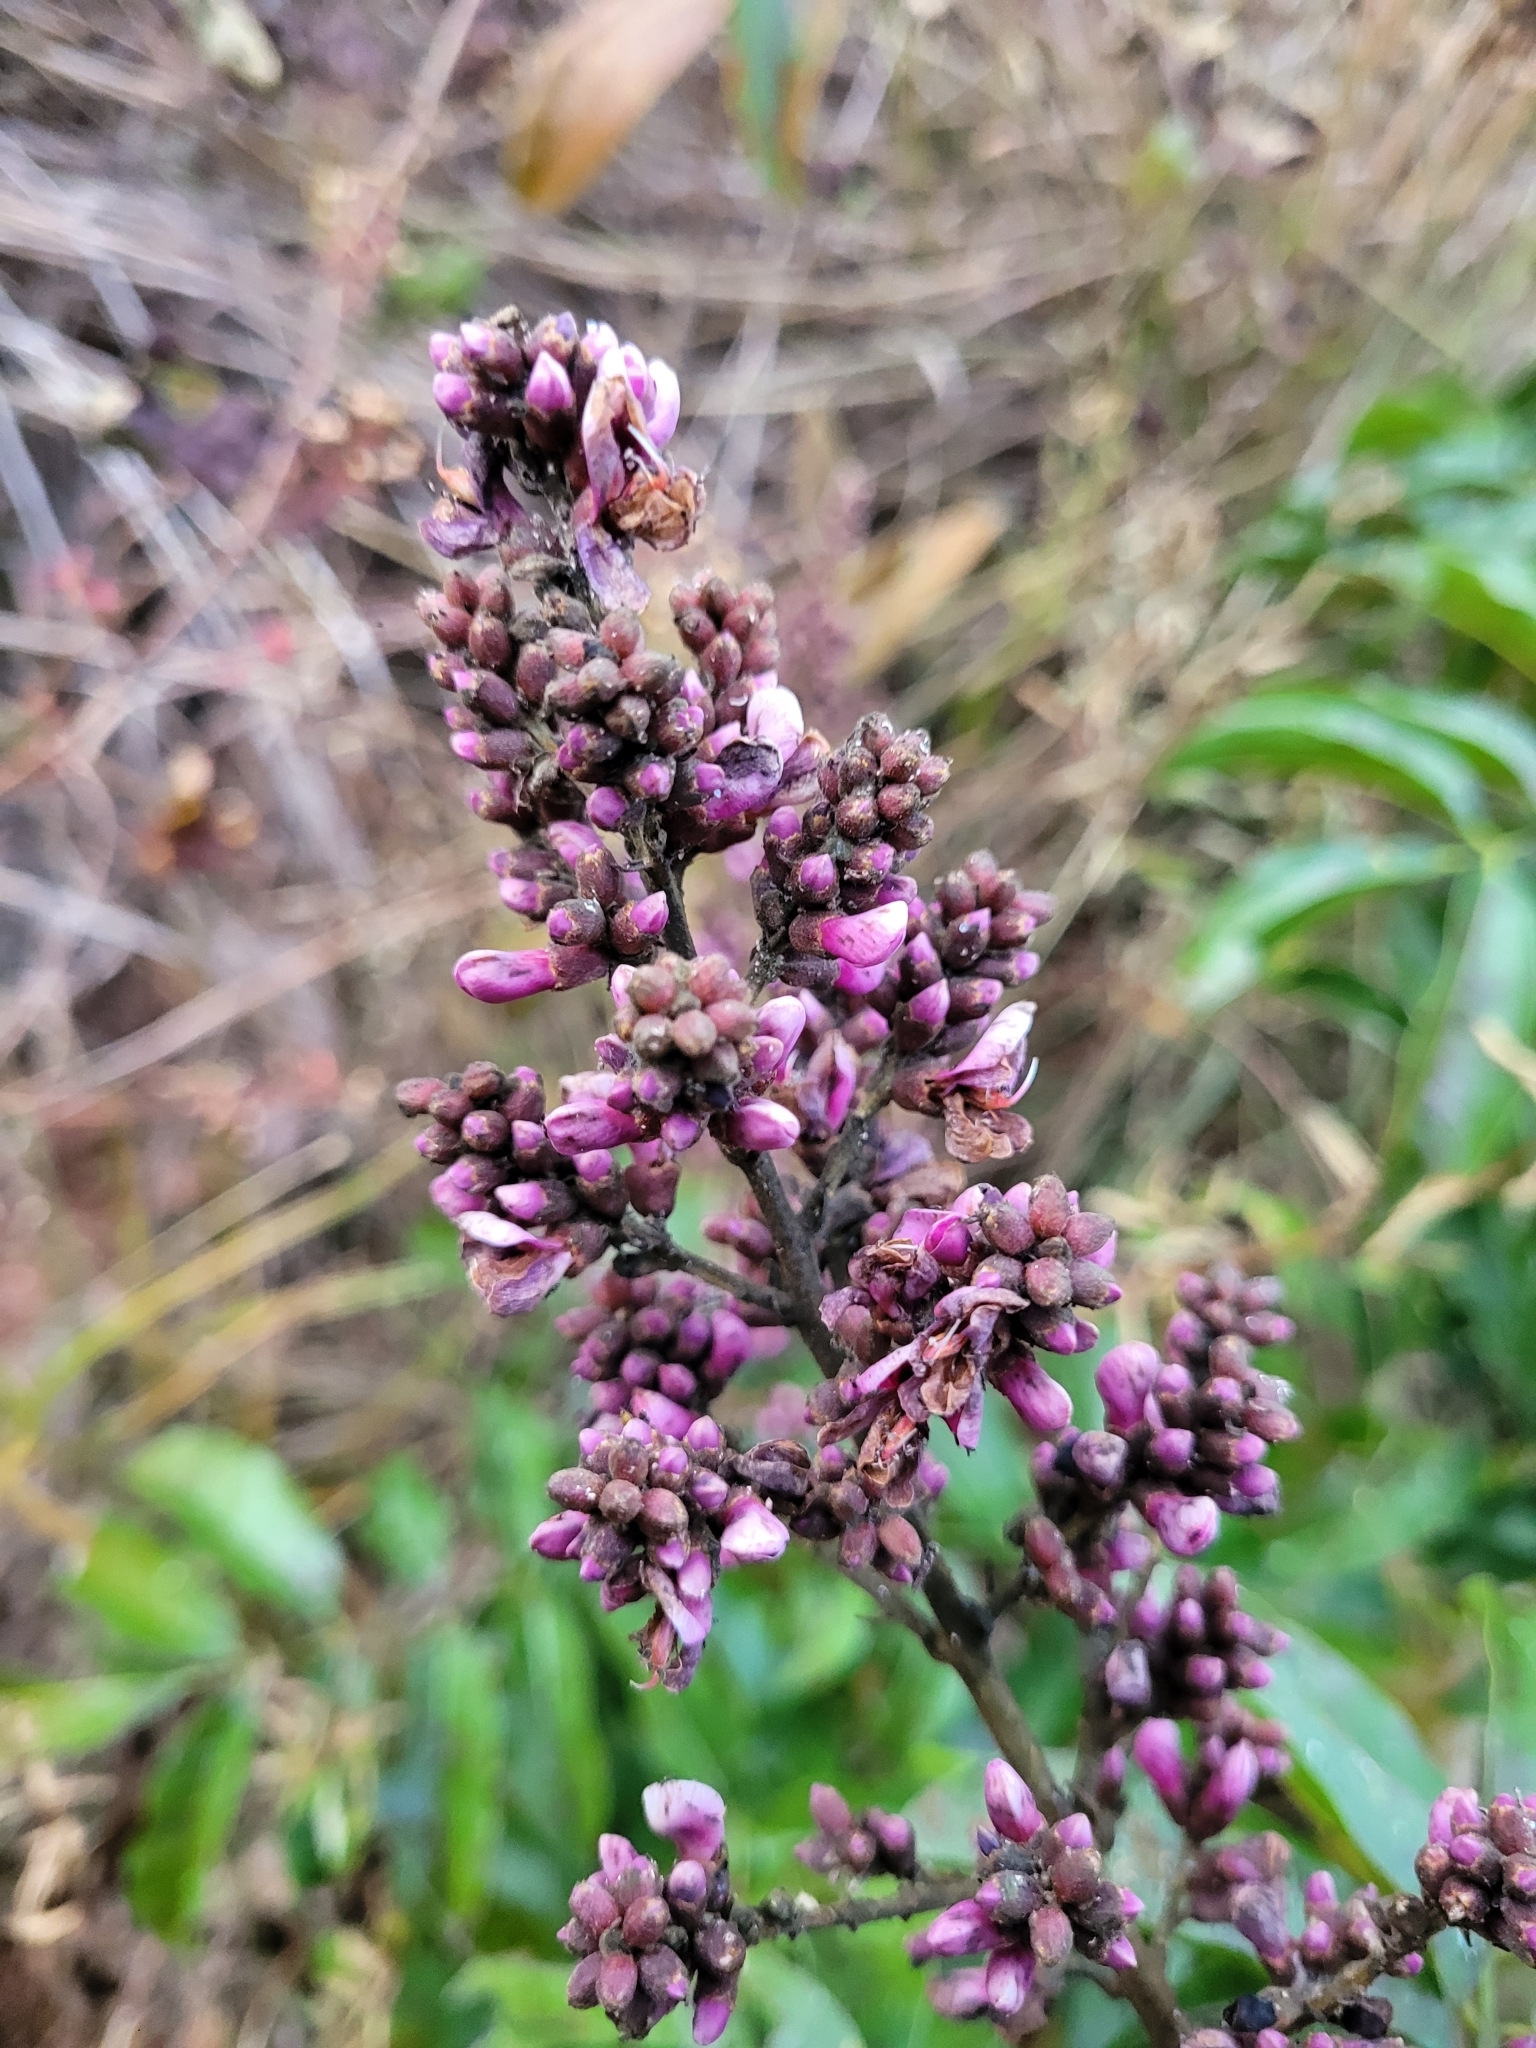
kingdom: Plantae
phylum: Tracheophyta
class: Magnoliopsida
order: Fabales
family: Fabaceae
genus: Andira
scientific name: Andira inermis
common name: Angelin
